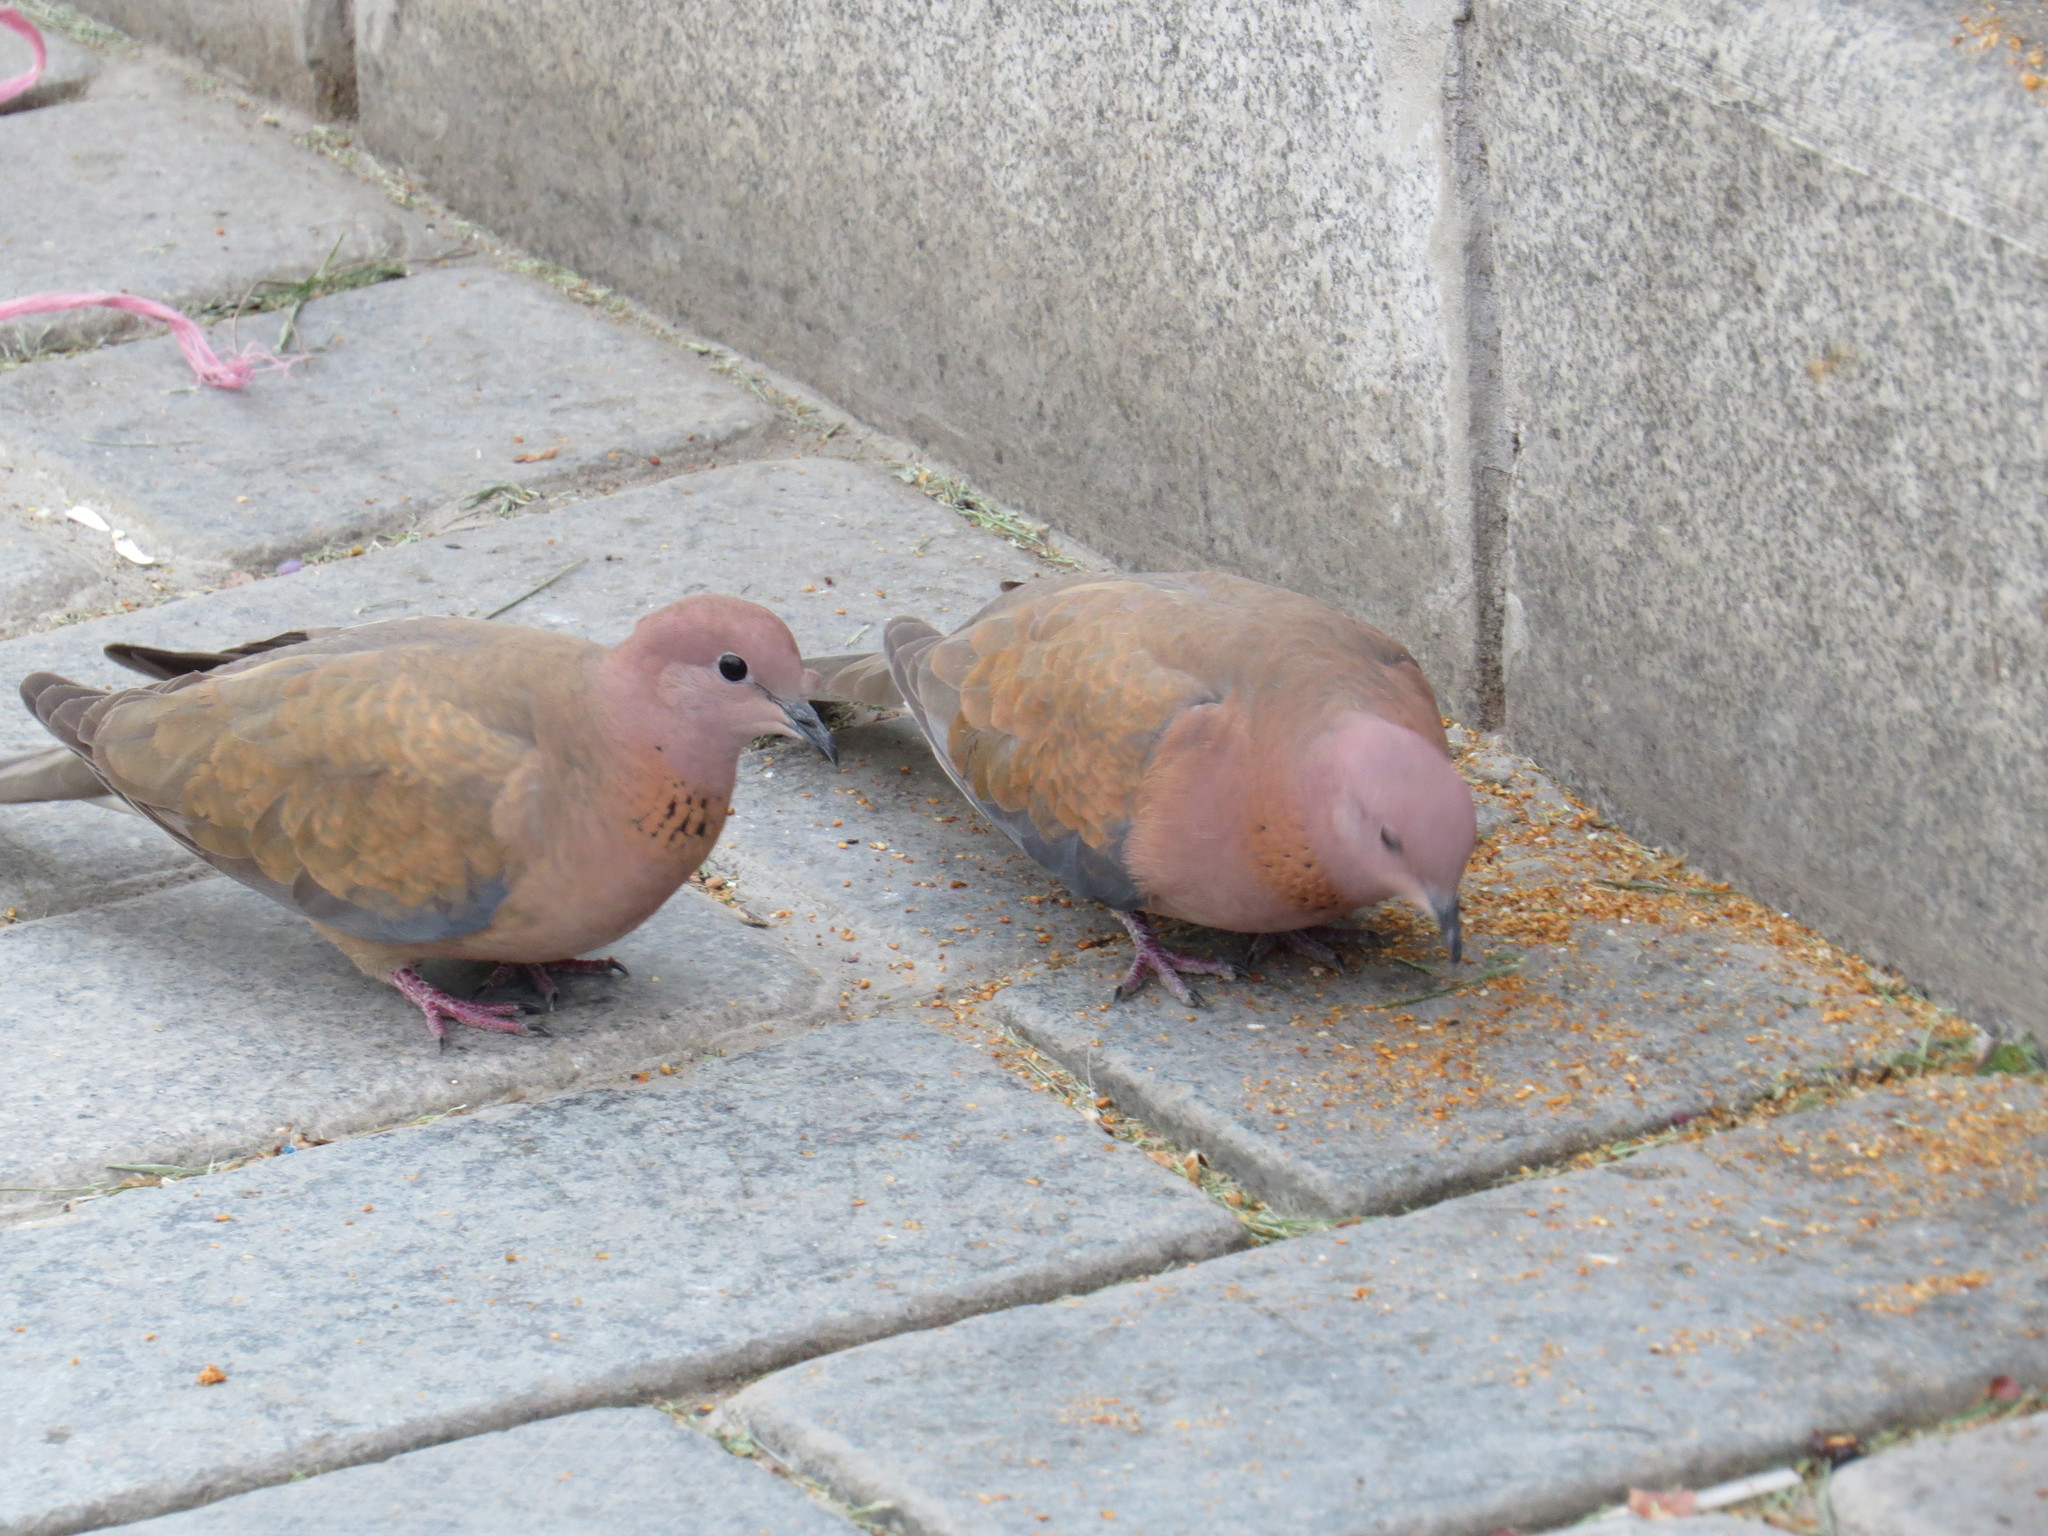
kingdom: Animalia
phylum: Chordata
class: Aves
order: Columbiformes
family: Columbidae
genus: Spilopelia
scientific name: Spilopelia senegalensis
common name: Laughing dove
